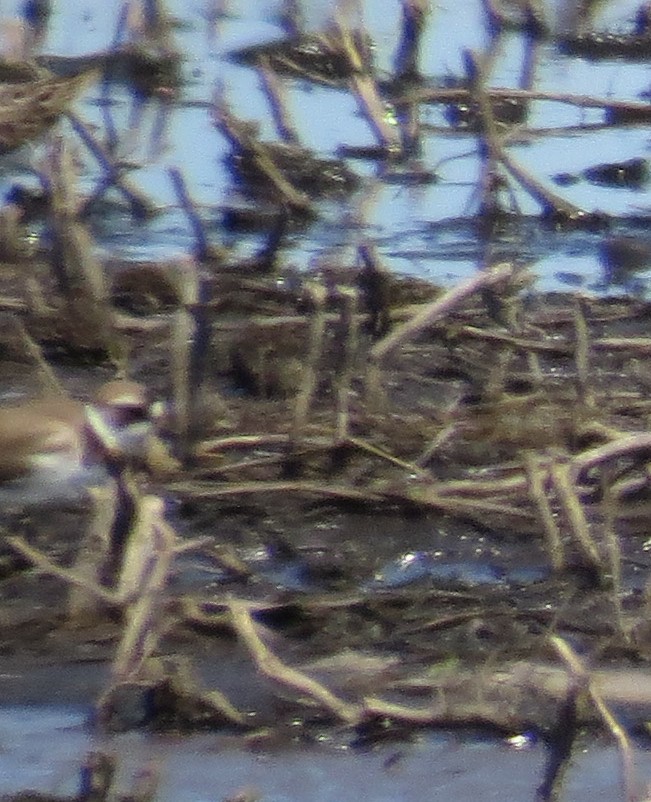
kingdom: Animalia
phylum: Chordata
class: Aves
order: Charadriiformes
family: Charadriidae
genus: Charadrius
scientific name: Charadrius semipalmatus
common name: Semipalmated plover
